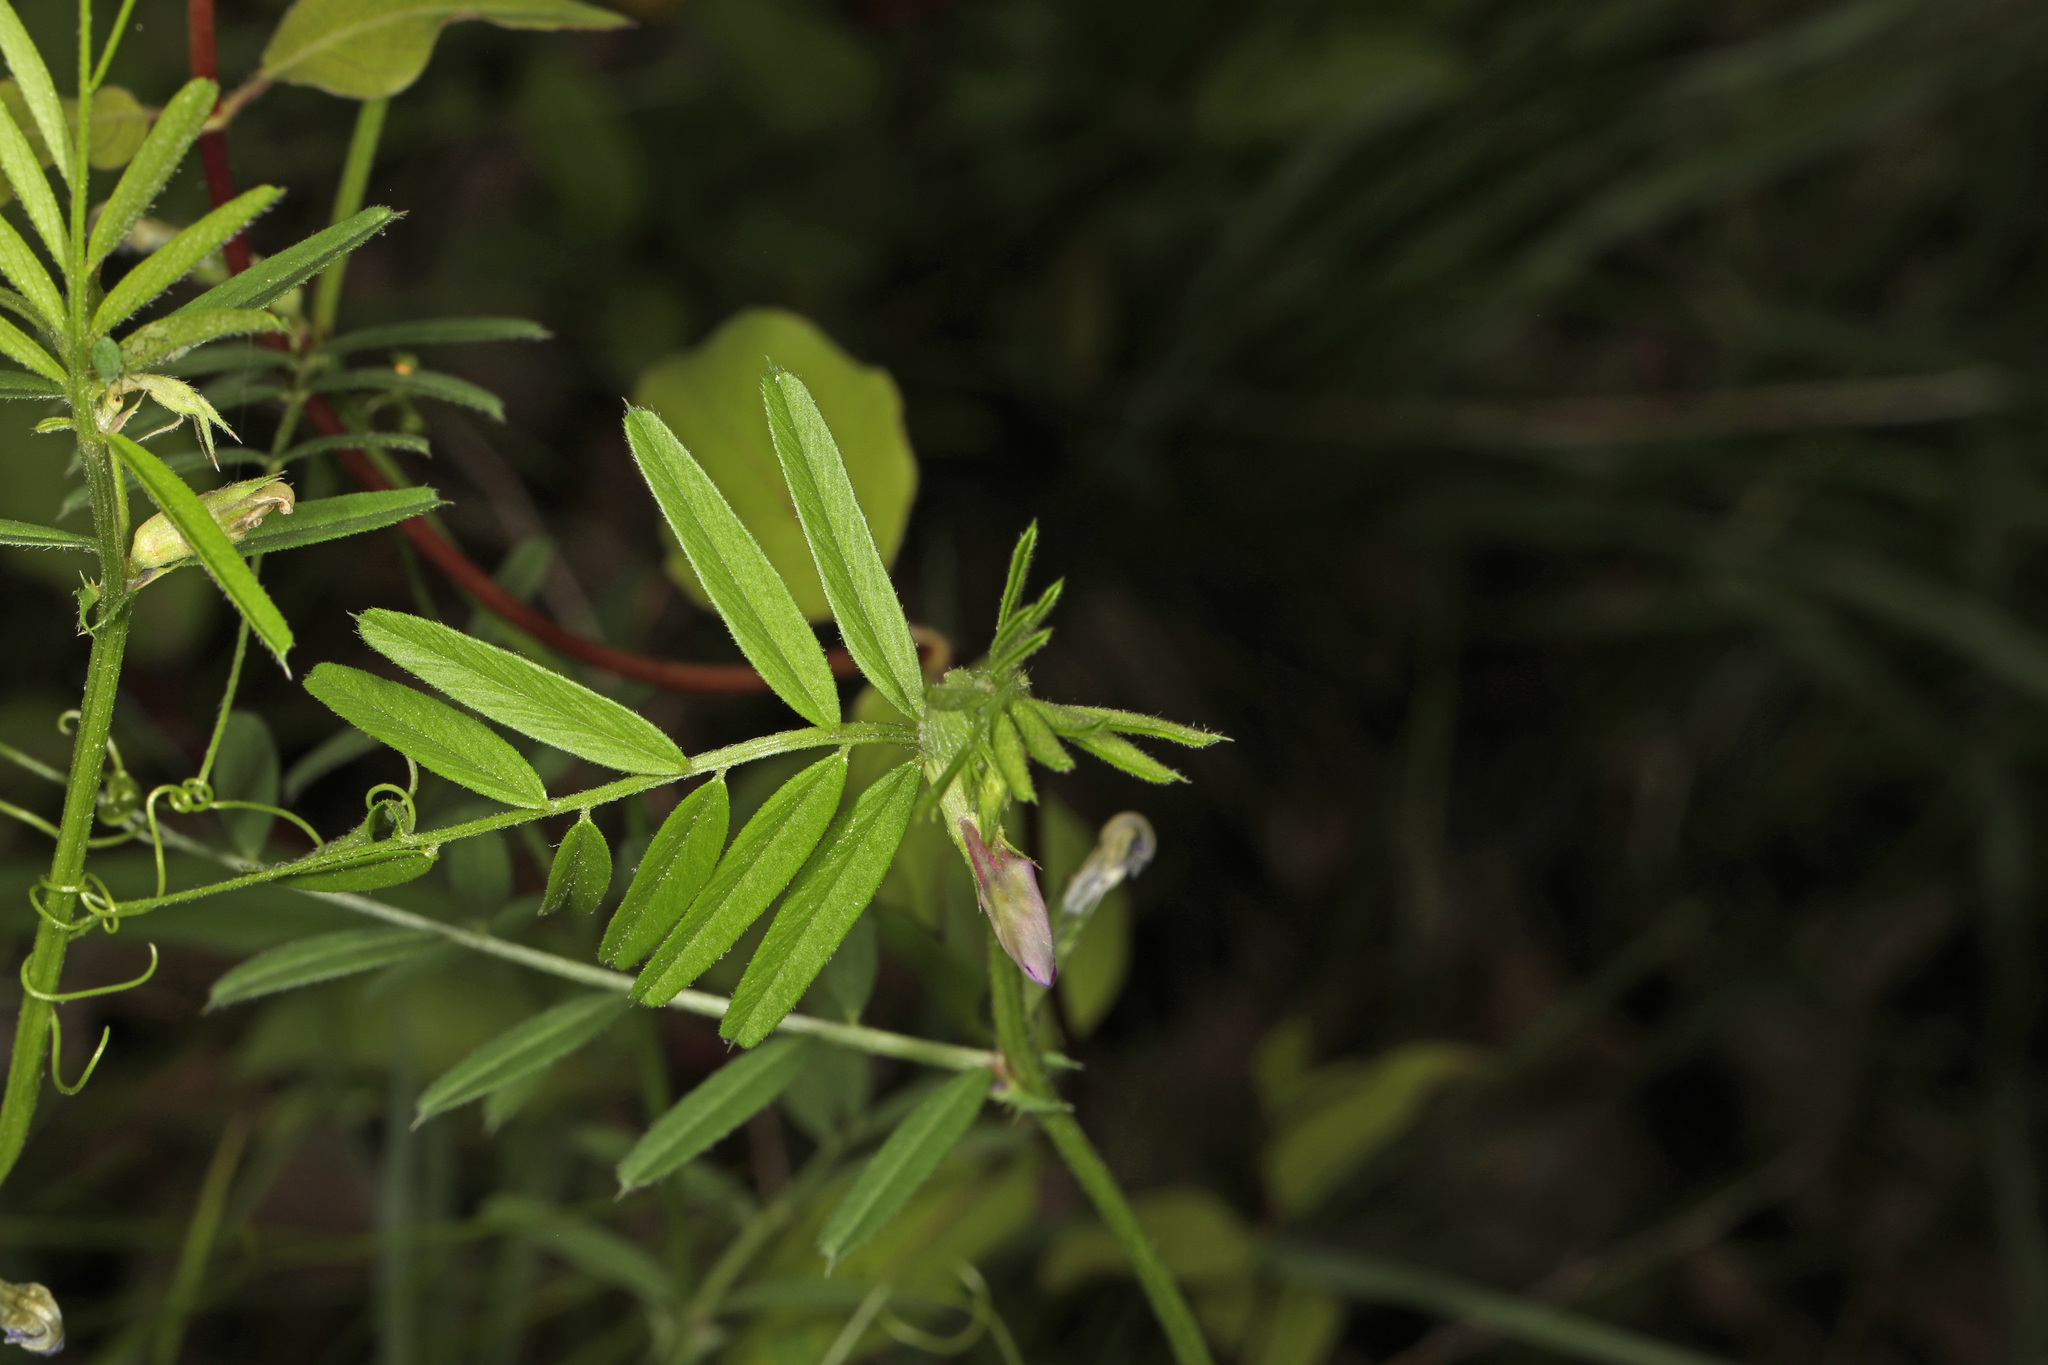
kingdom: Plantae
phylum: Tracheophyta
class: Magnoliopsida
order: Fabales
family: Fabaceae
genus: Vicia
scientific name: Vicia sativa
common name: Garden vetch
